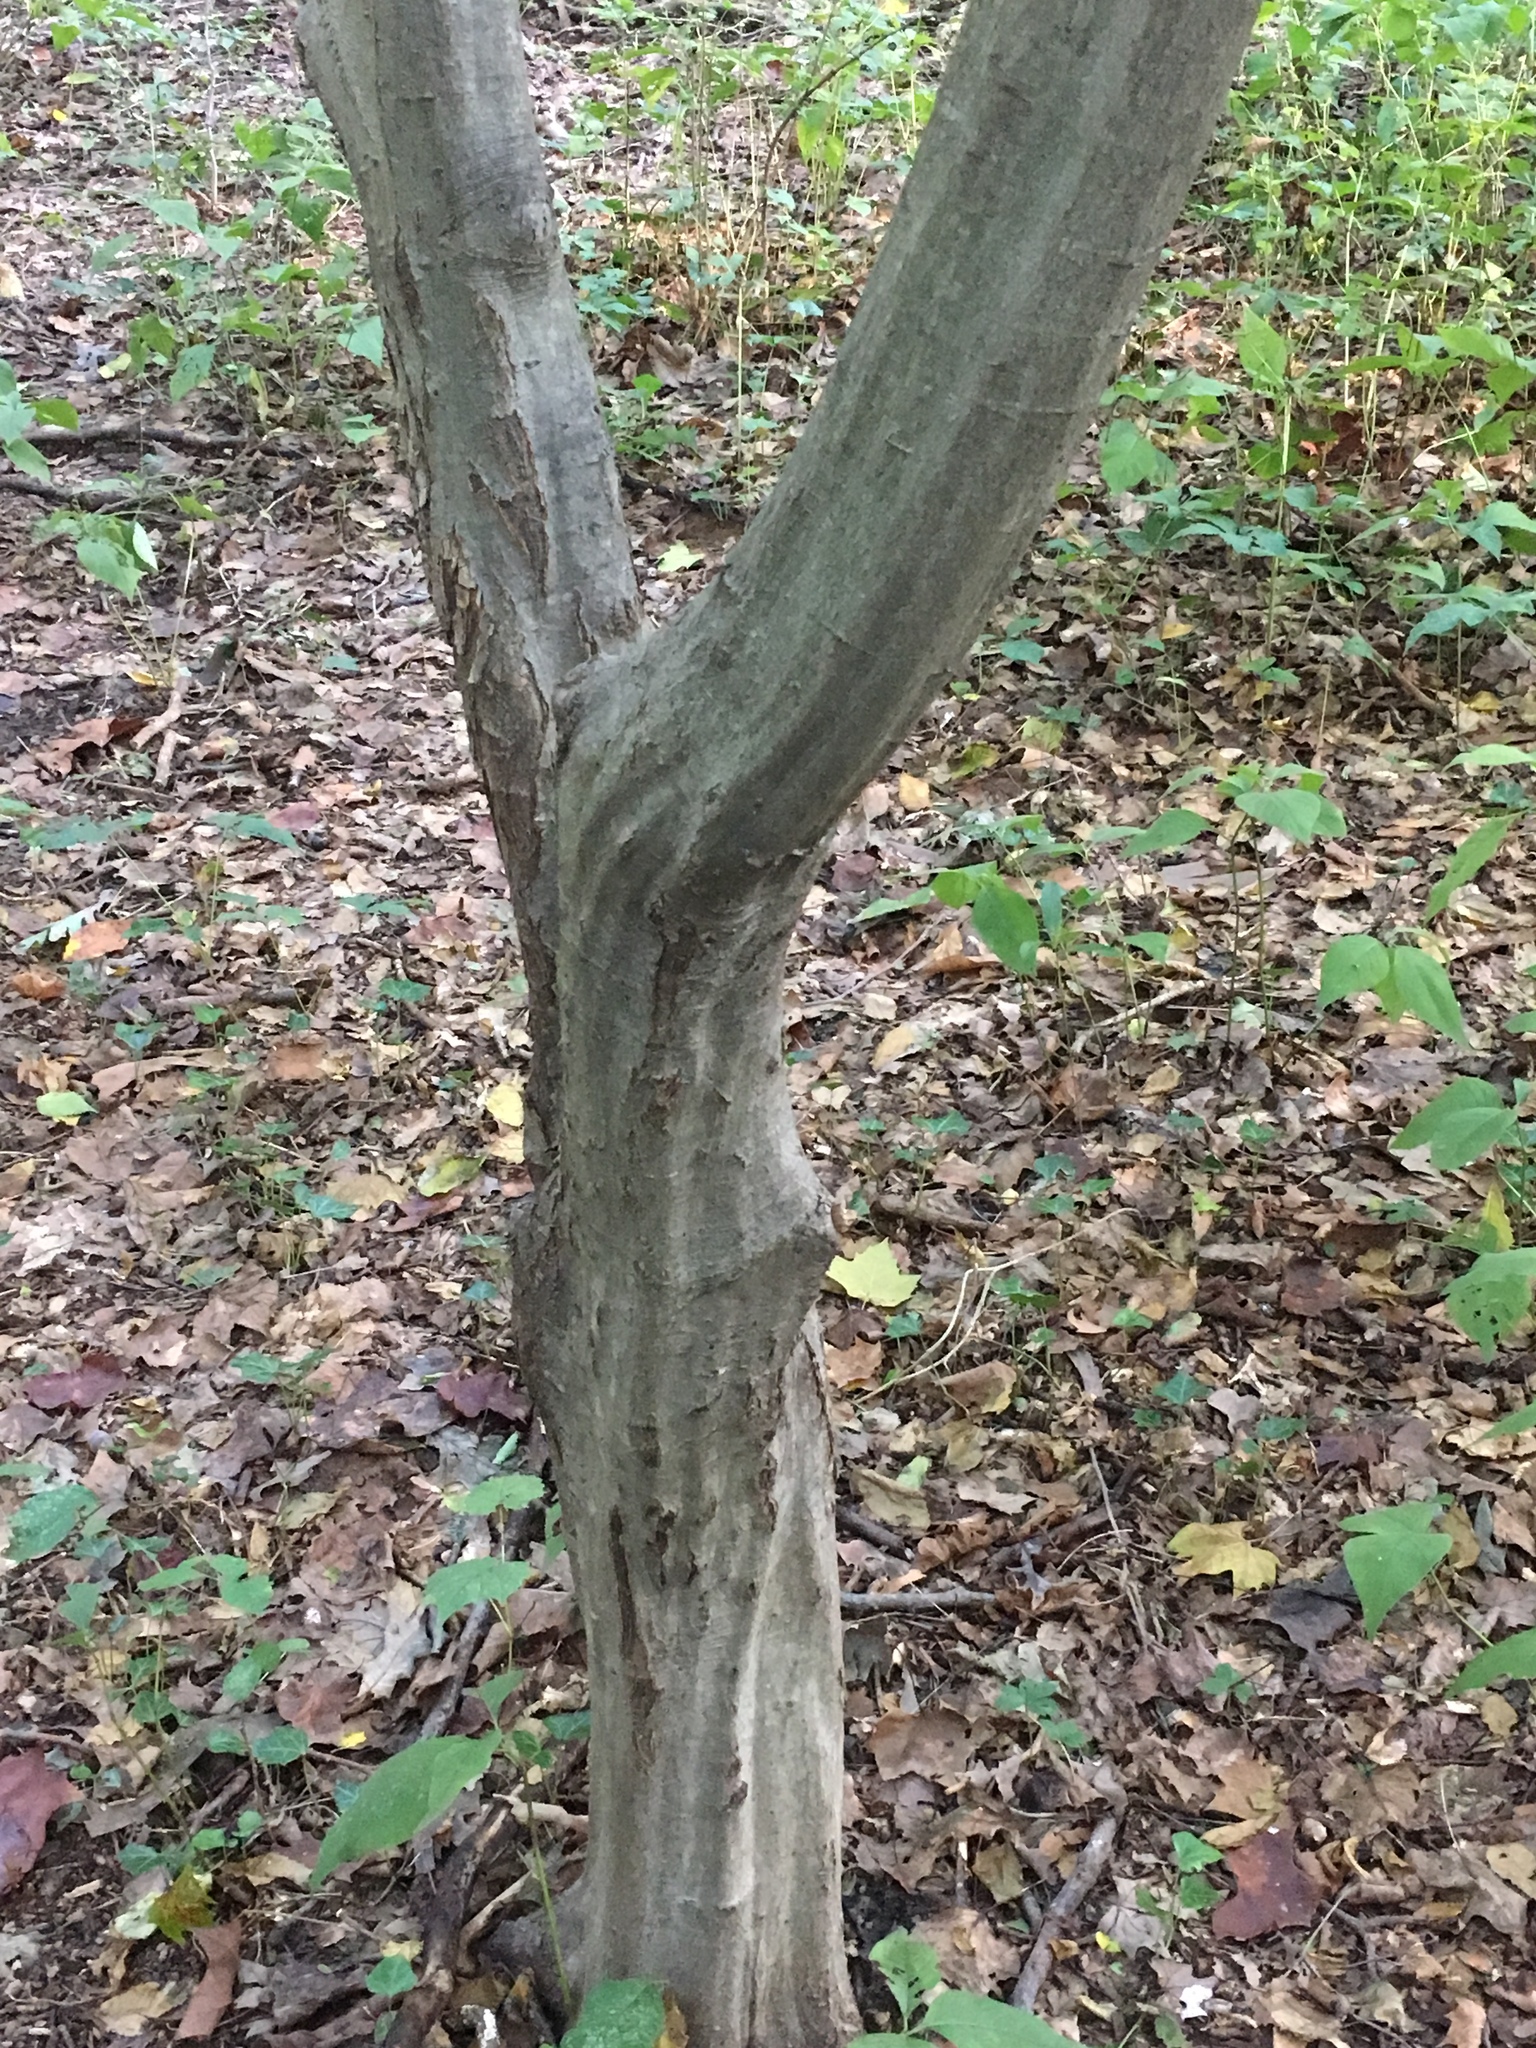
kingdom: Plantae
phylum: Tracheophyta
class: Magnoliopsida
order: Fagales
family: Betulaceae
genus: Carpinus
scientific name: Carpinus caroliniana
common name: American hornbeam
